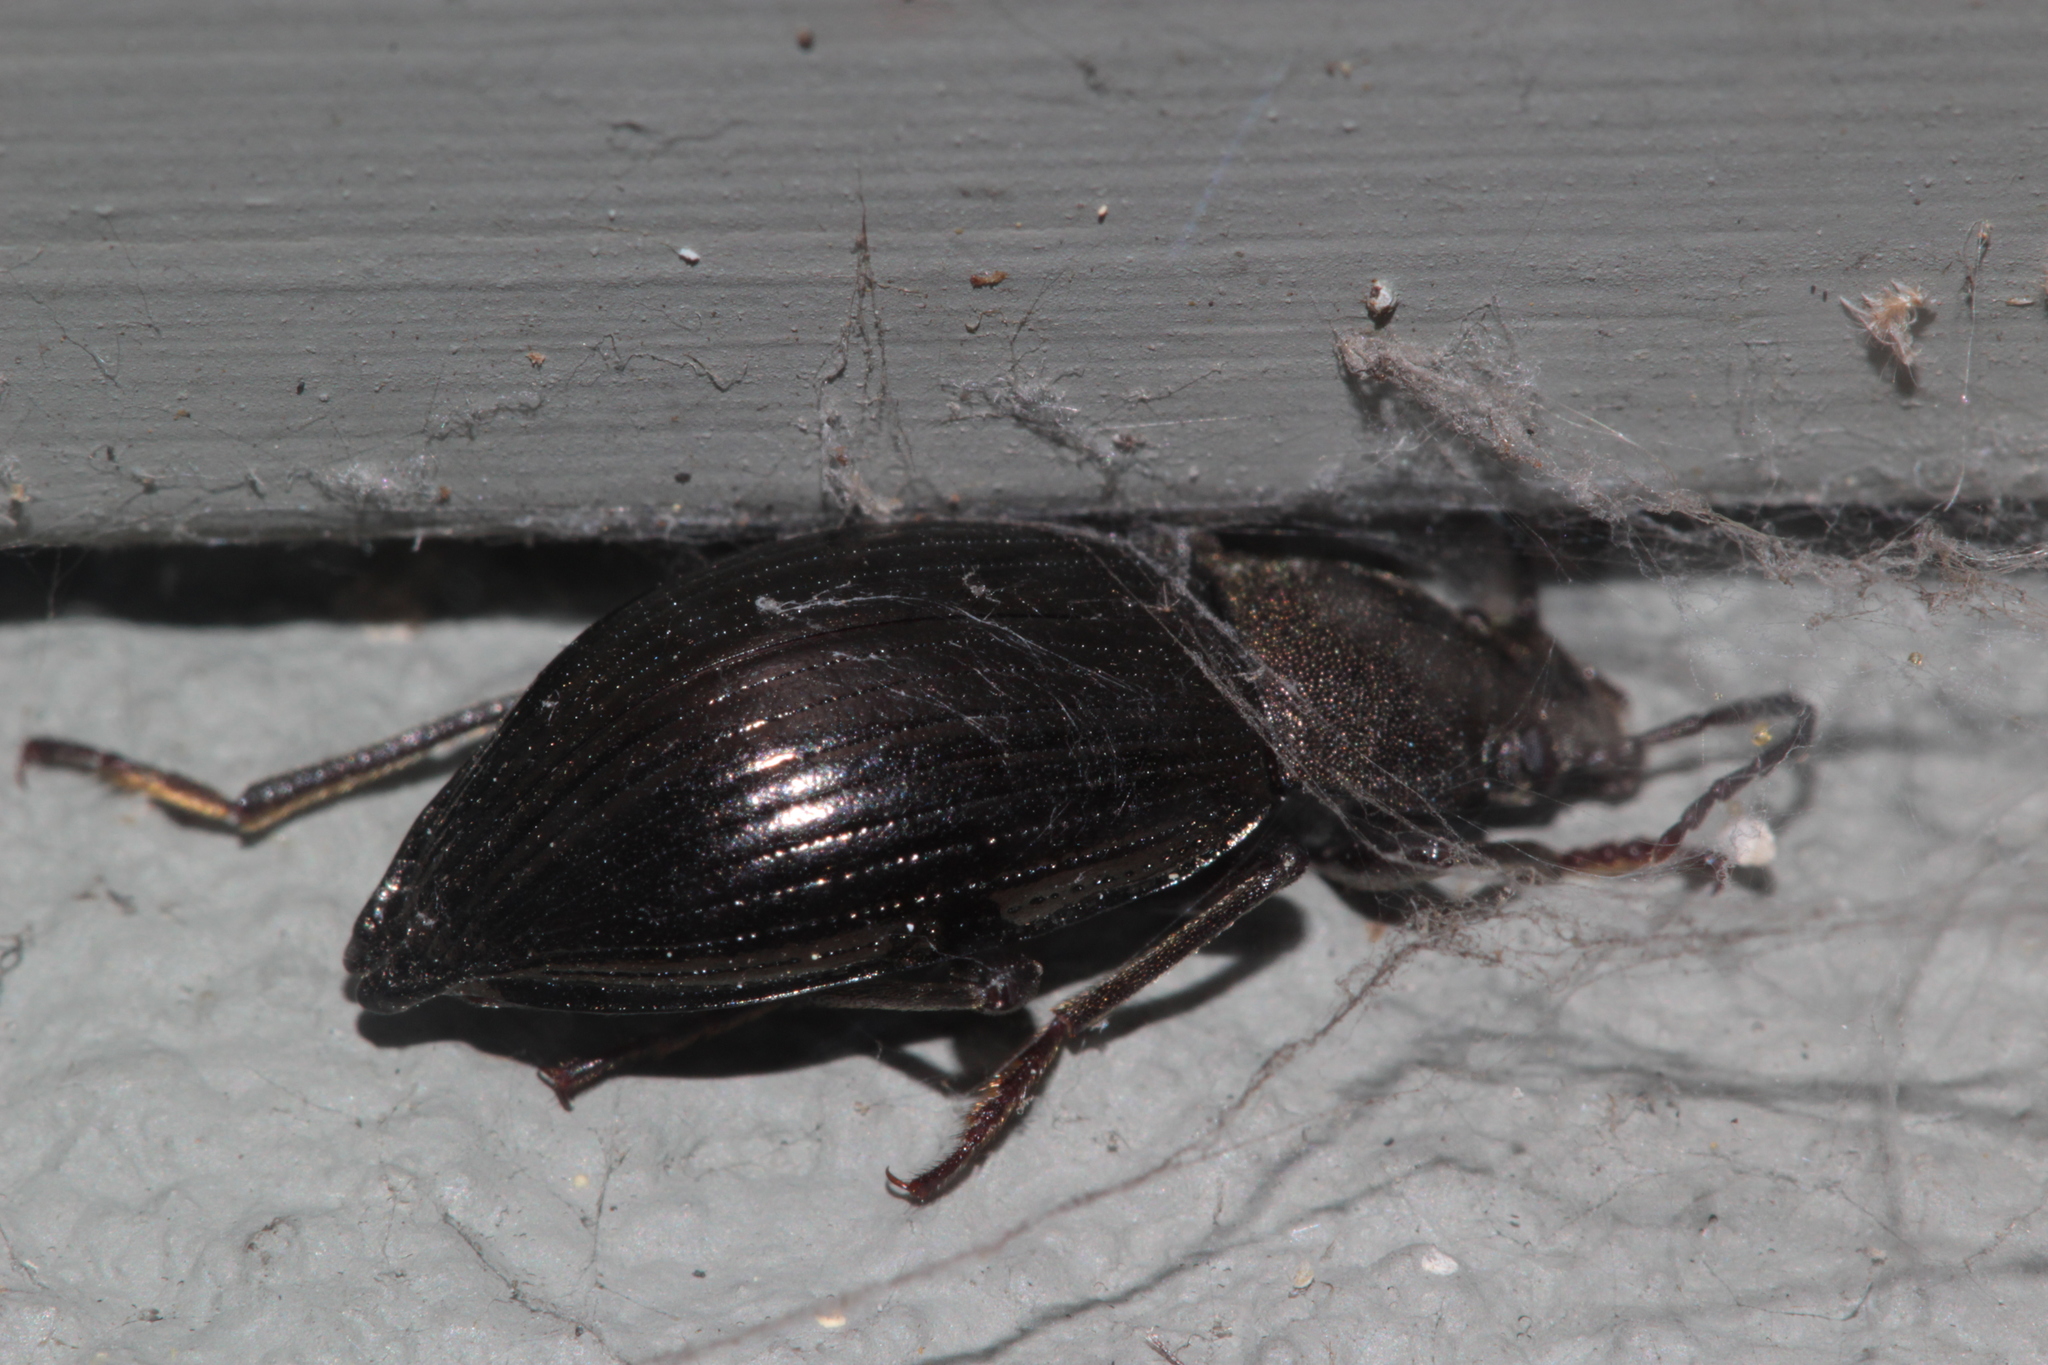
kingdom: Animalia
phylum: Arthropoda
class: Insecta
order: Coleoptera
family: Tenebrionidae
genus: Stenomax
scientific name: Stenomax aeneus
